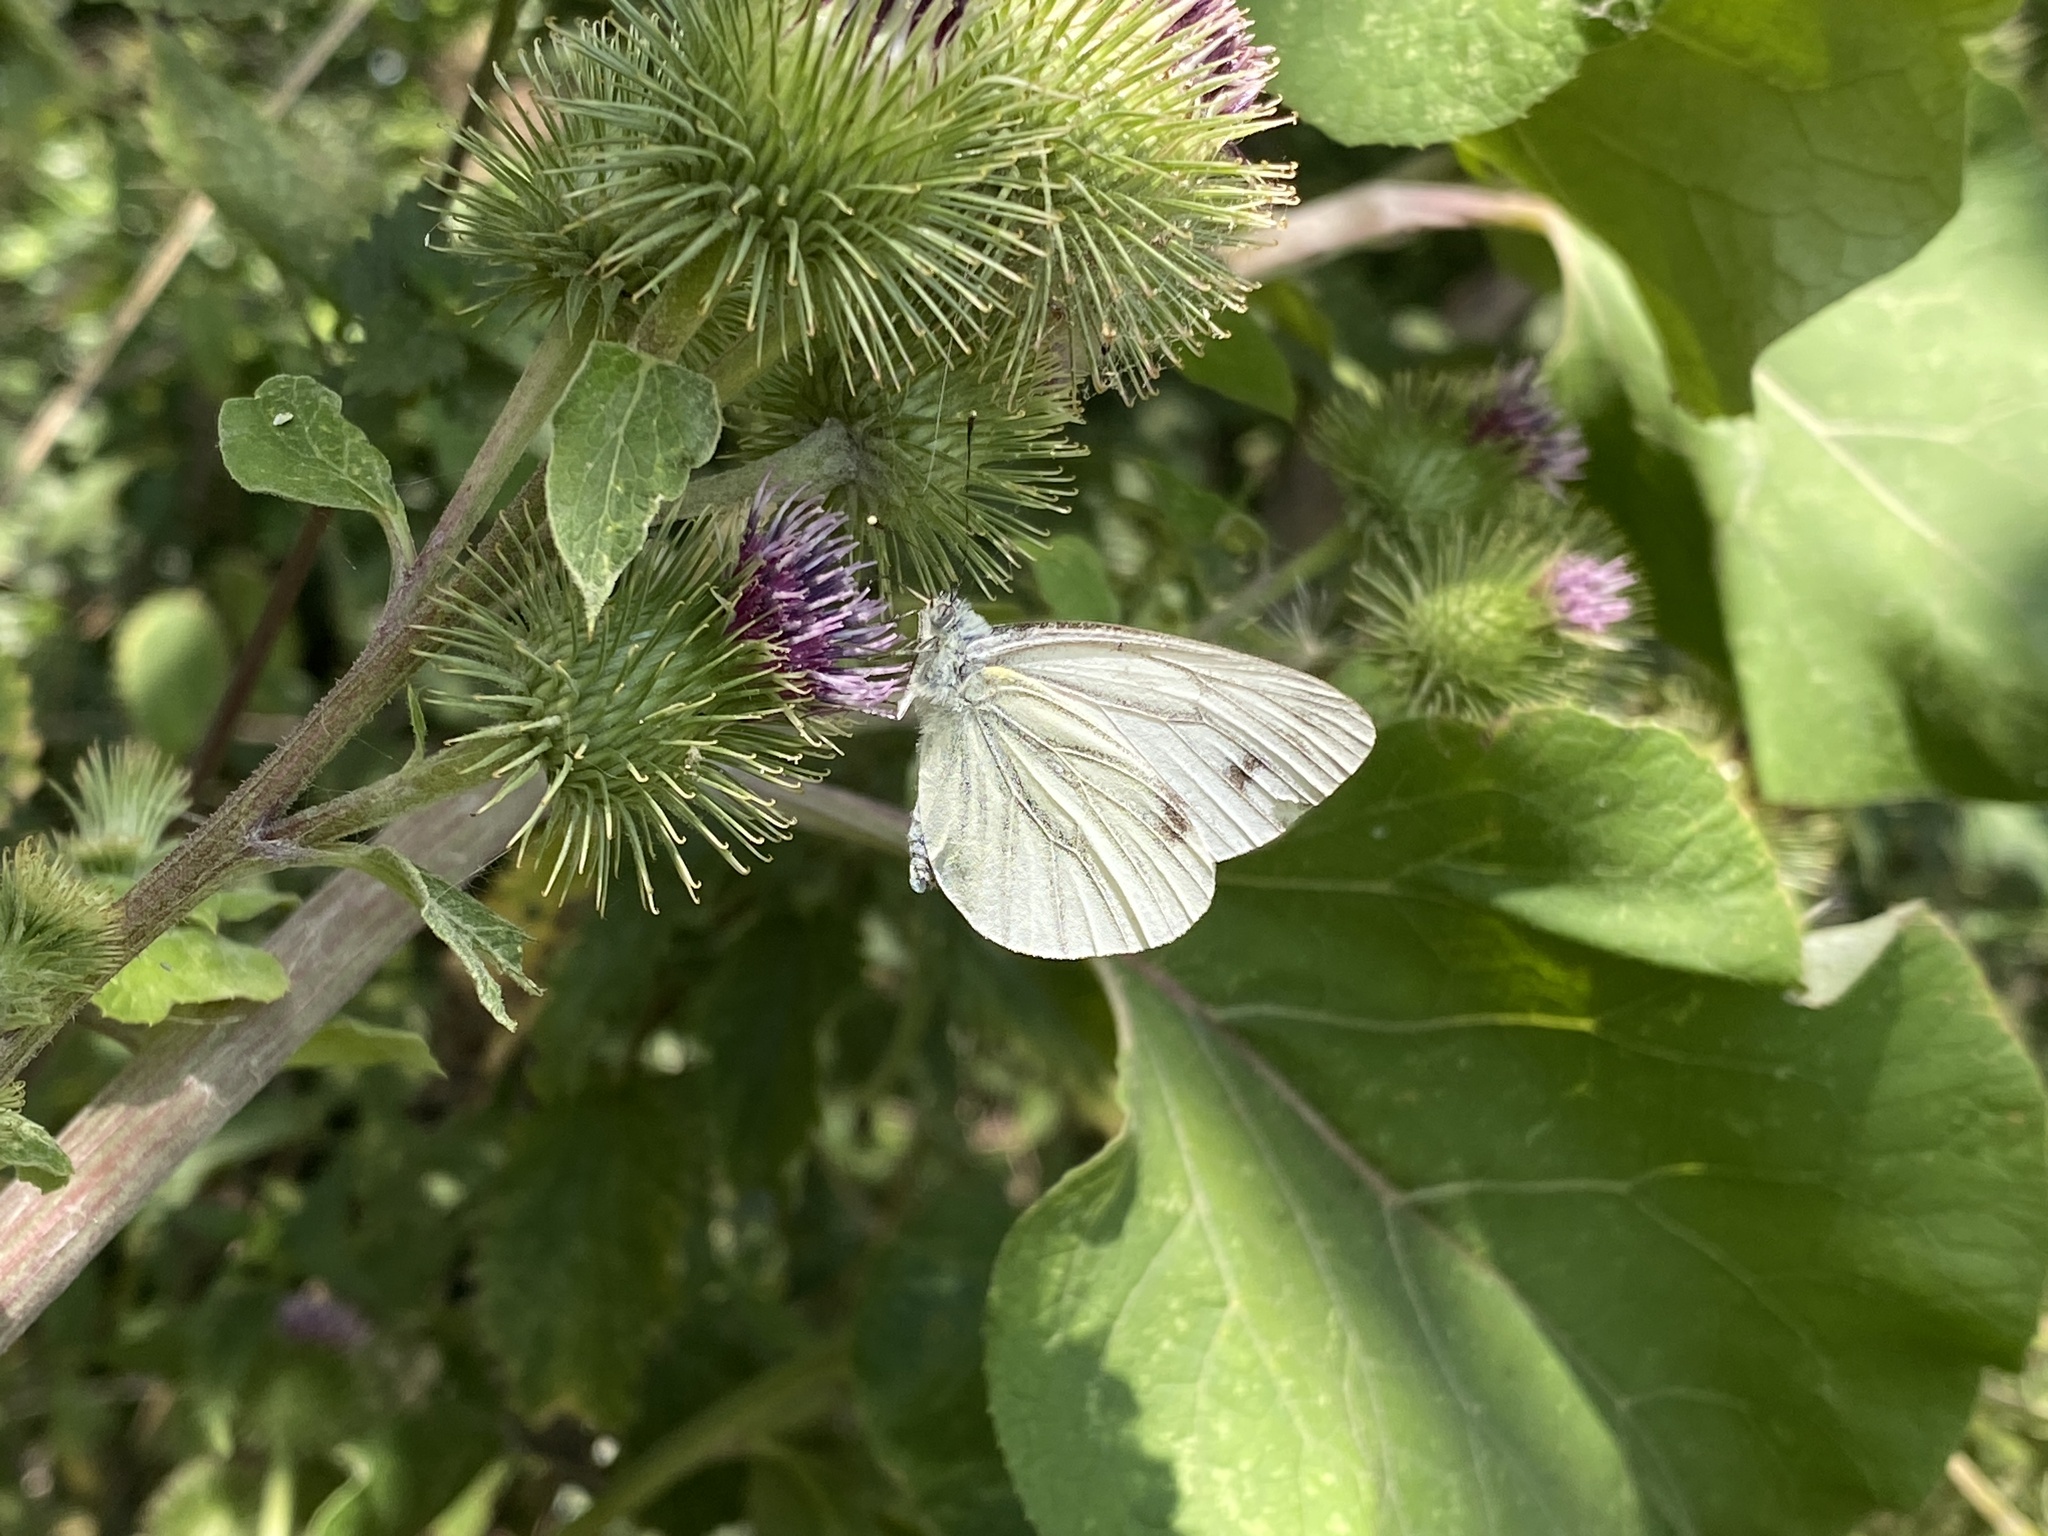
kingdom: Animalia
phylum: Arthropoda
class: Insecta
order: Lepidoptera
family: Pieridae
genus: Pieris
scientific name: Pieris napi
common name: Green-veined white
